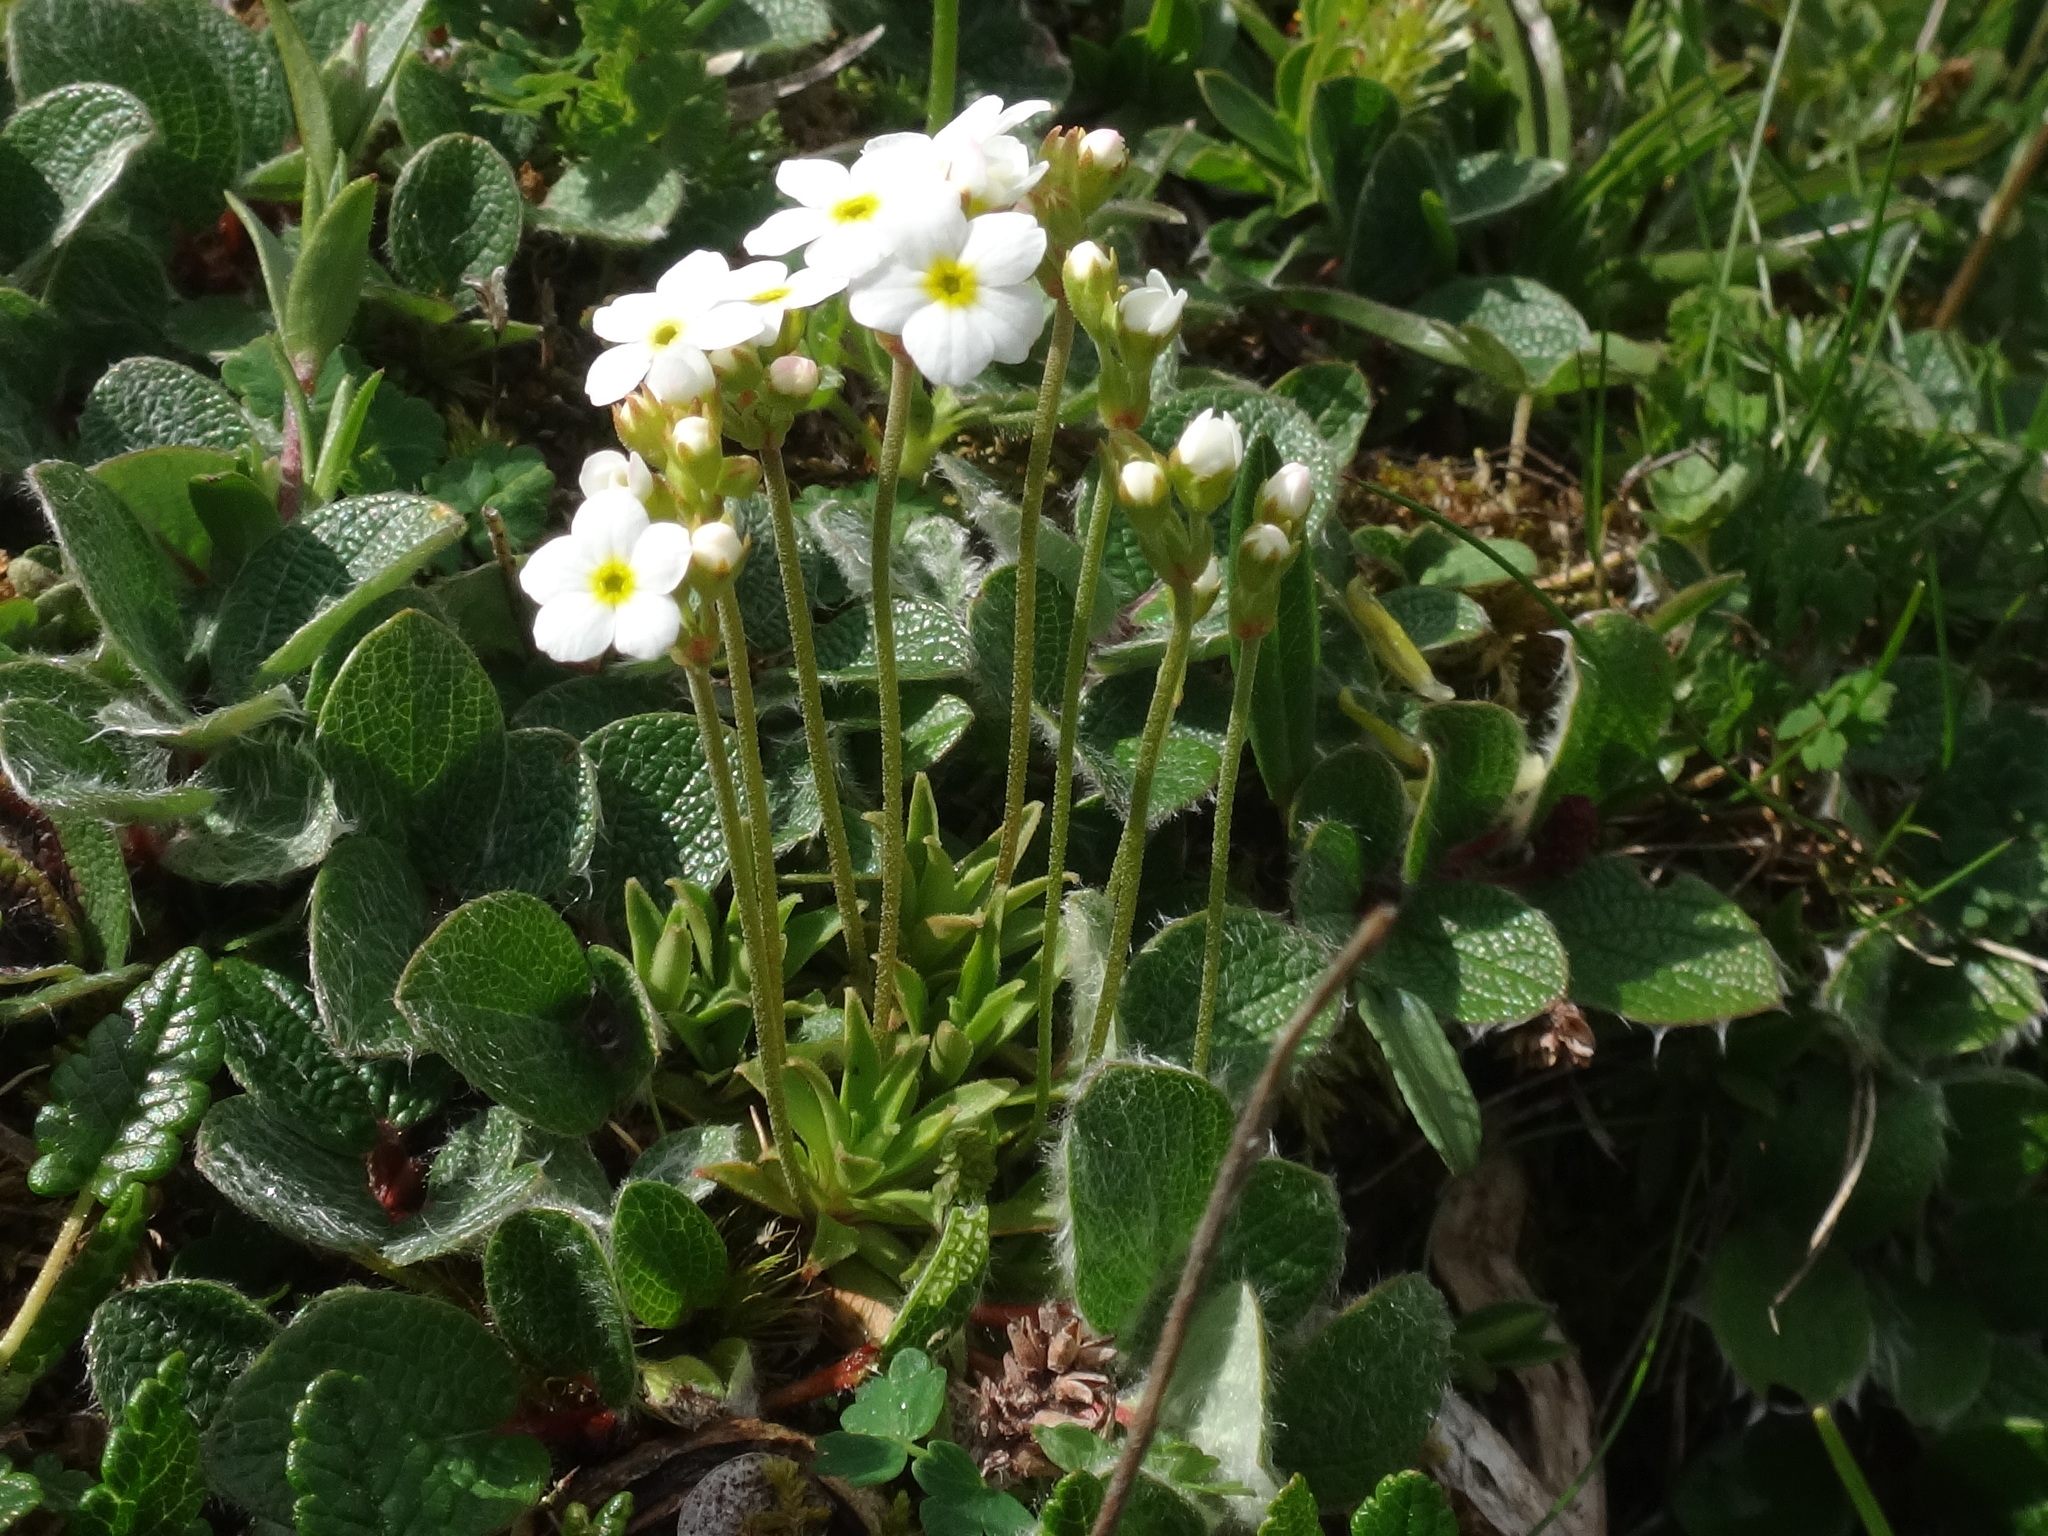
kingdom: Plantae
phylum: Tracheophyta
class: Magnoliopsida
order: Ericales
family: Primulaceae
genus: Androsace
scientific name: Androsace obtusifolia
